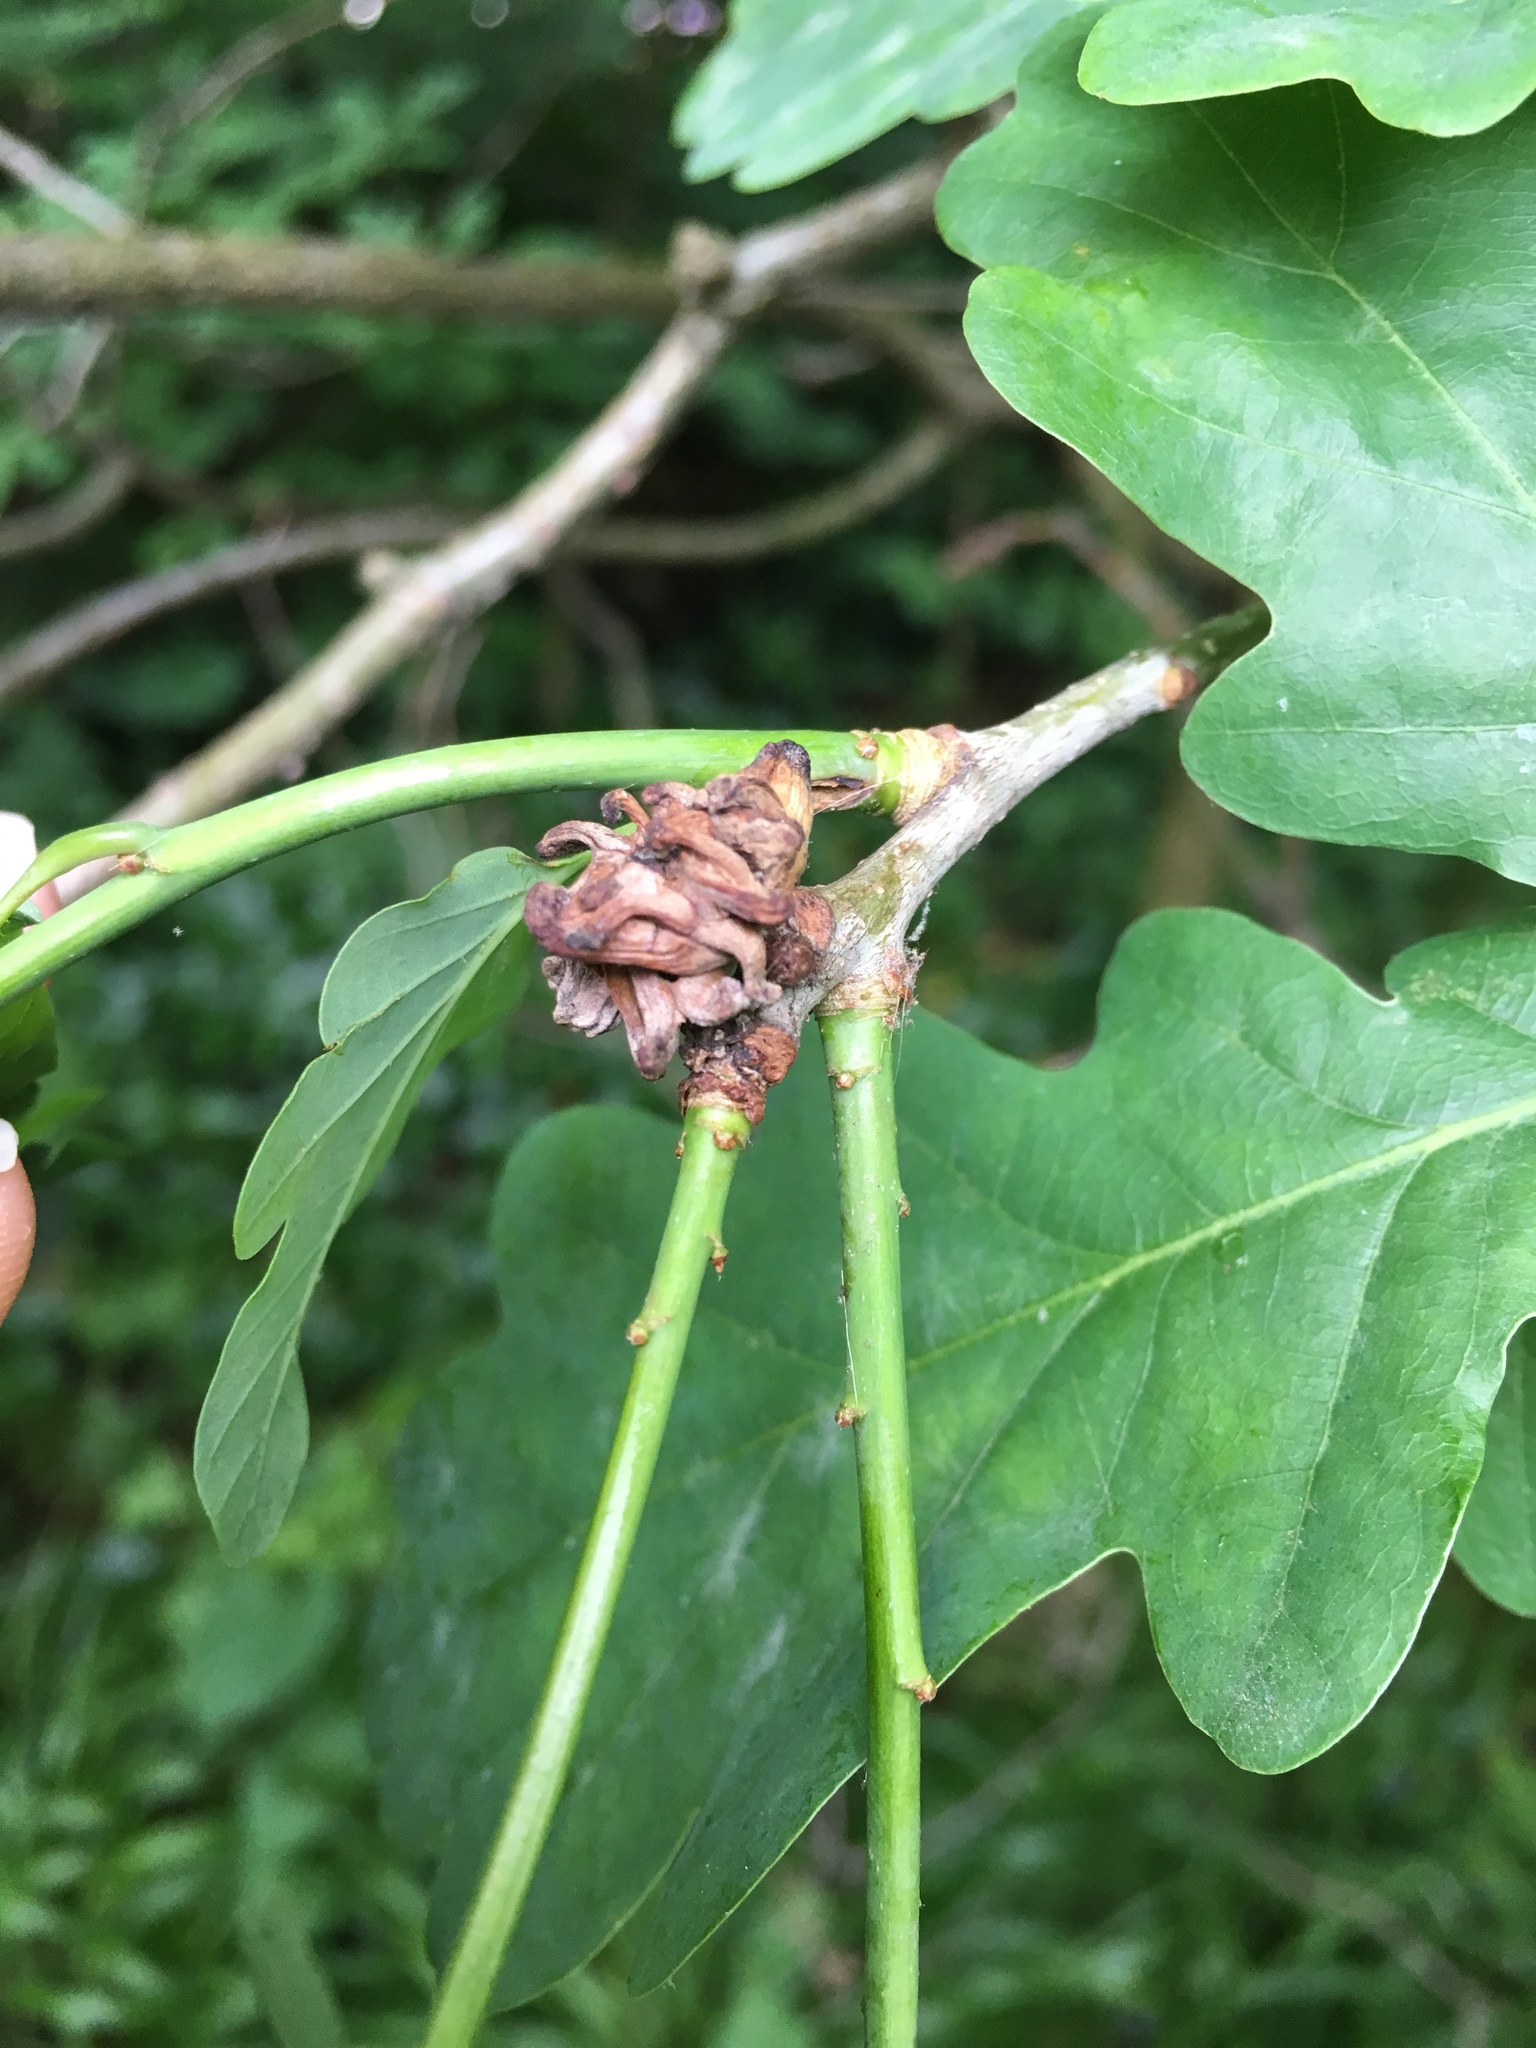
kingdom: Animalia
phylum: Arthropoda
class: Insecta
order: Hymenoptera
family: Cynipidae
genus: Andricus
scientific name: Andricus grossulariae
